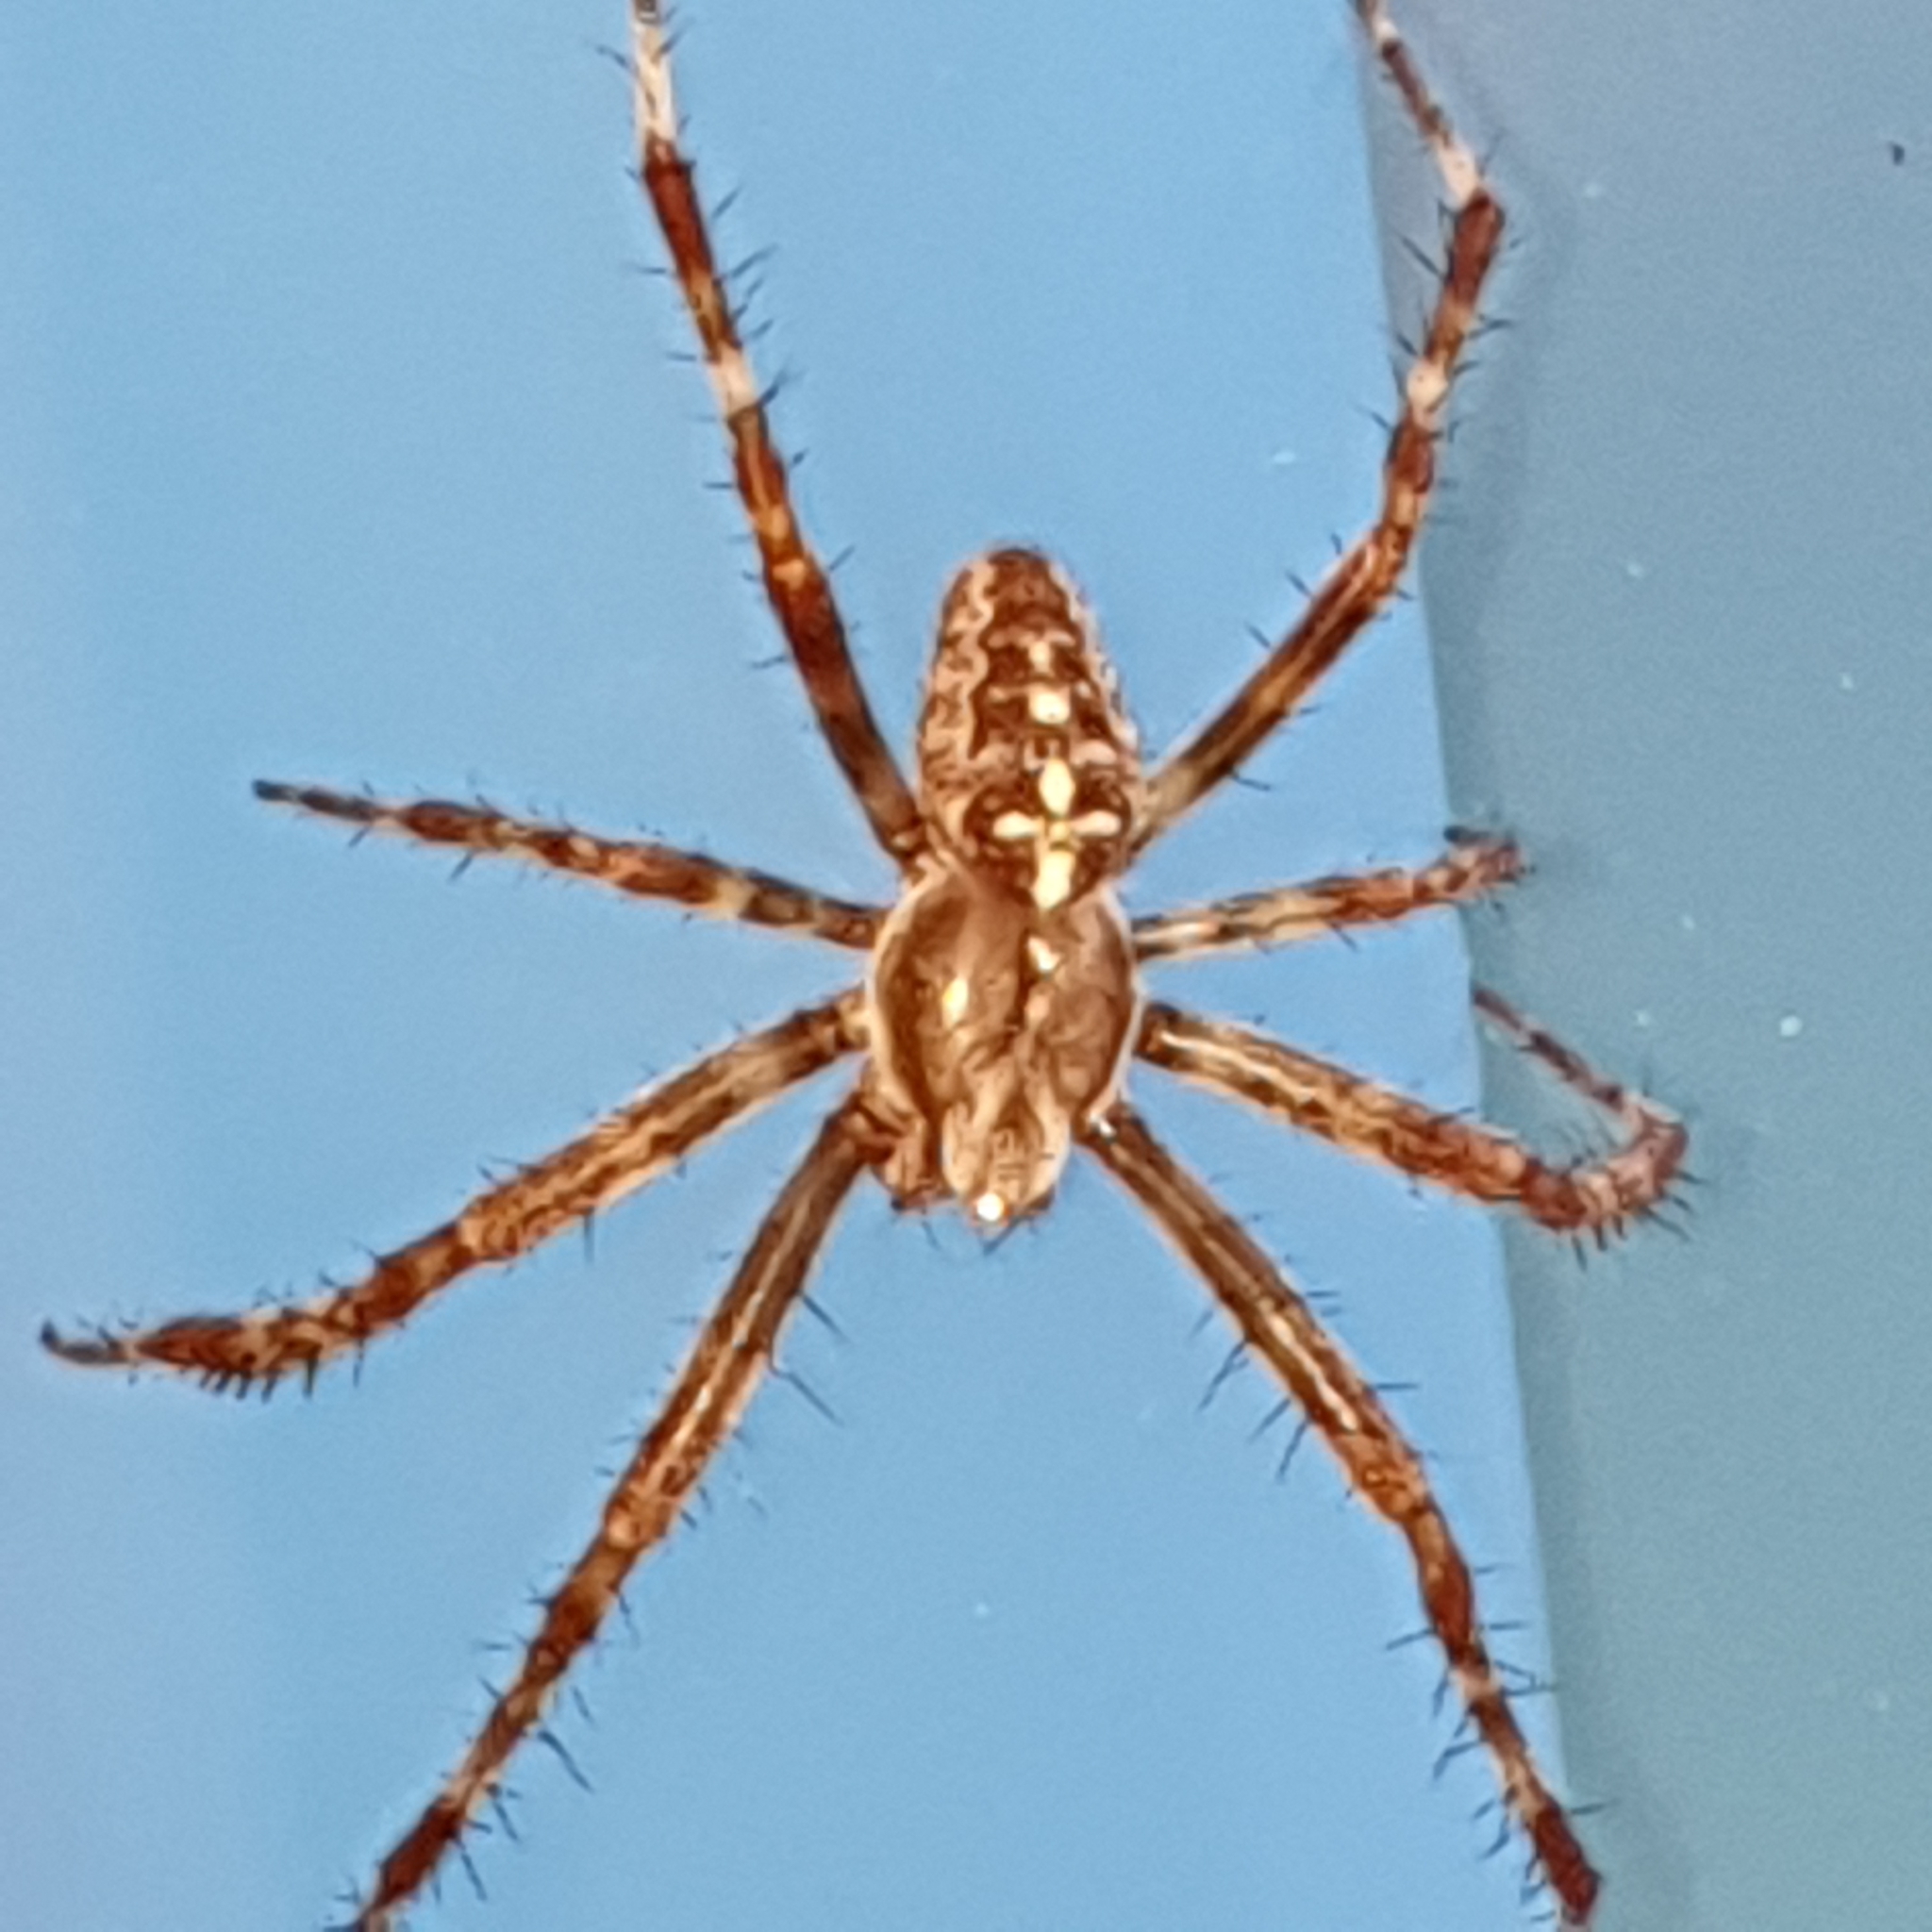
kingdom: Animalia
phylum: Arthropoda
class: Arachnida
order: Araneae
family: Araneidae
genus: Araneus
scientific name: Araneus diadematus
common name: Cross orbweaver
